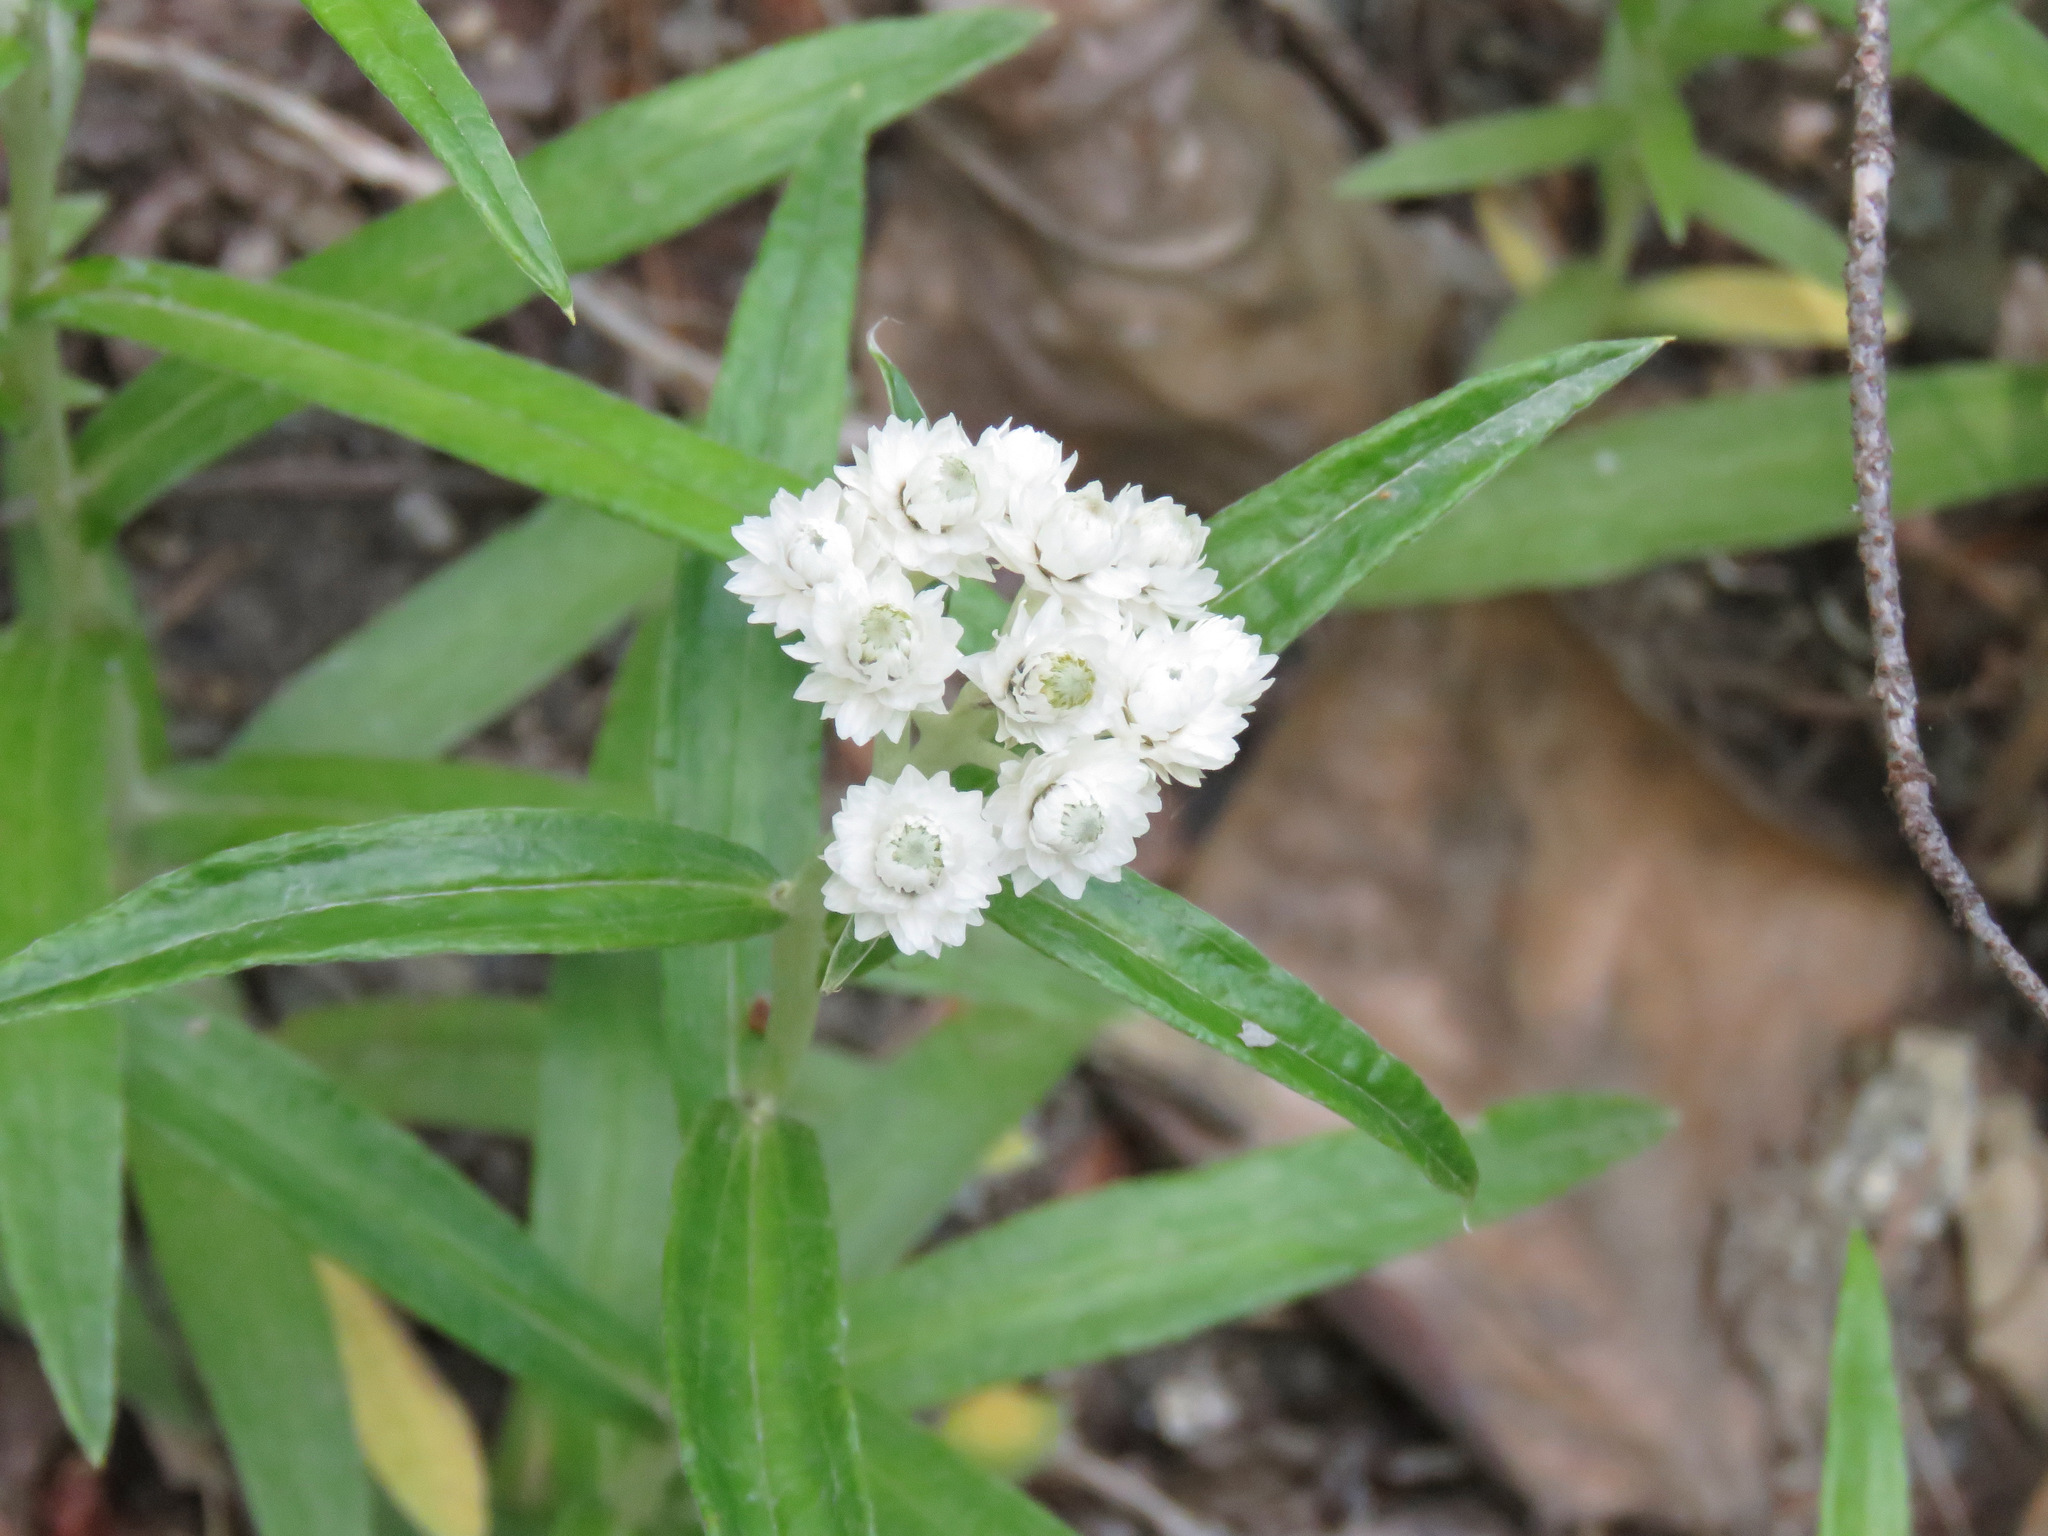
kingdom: Plantae
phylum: Tracheophyta
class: Magnoliopsida
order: Asterales
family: Asteraceae
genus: Anaphalis
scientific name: Anaphalis margaritacea
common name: Pearly everlasting
